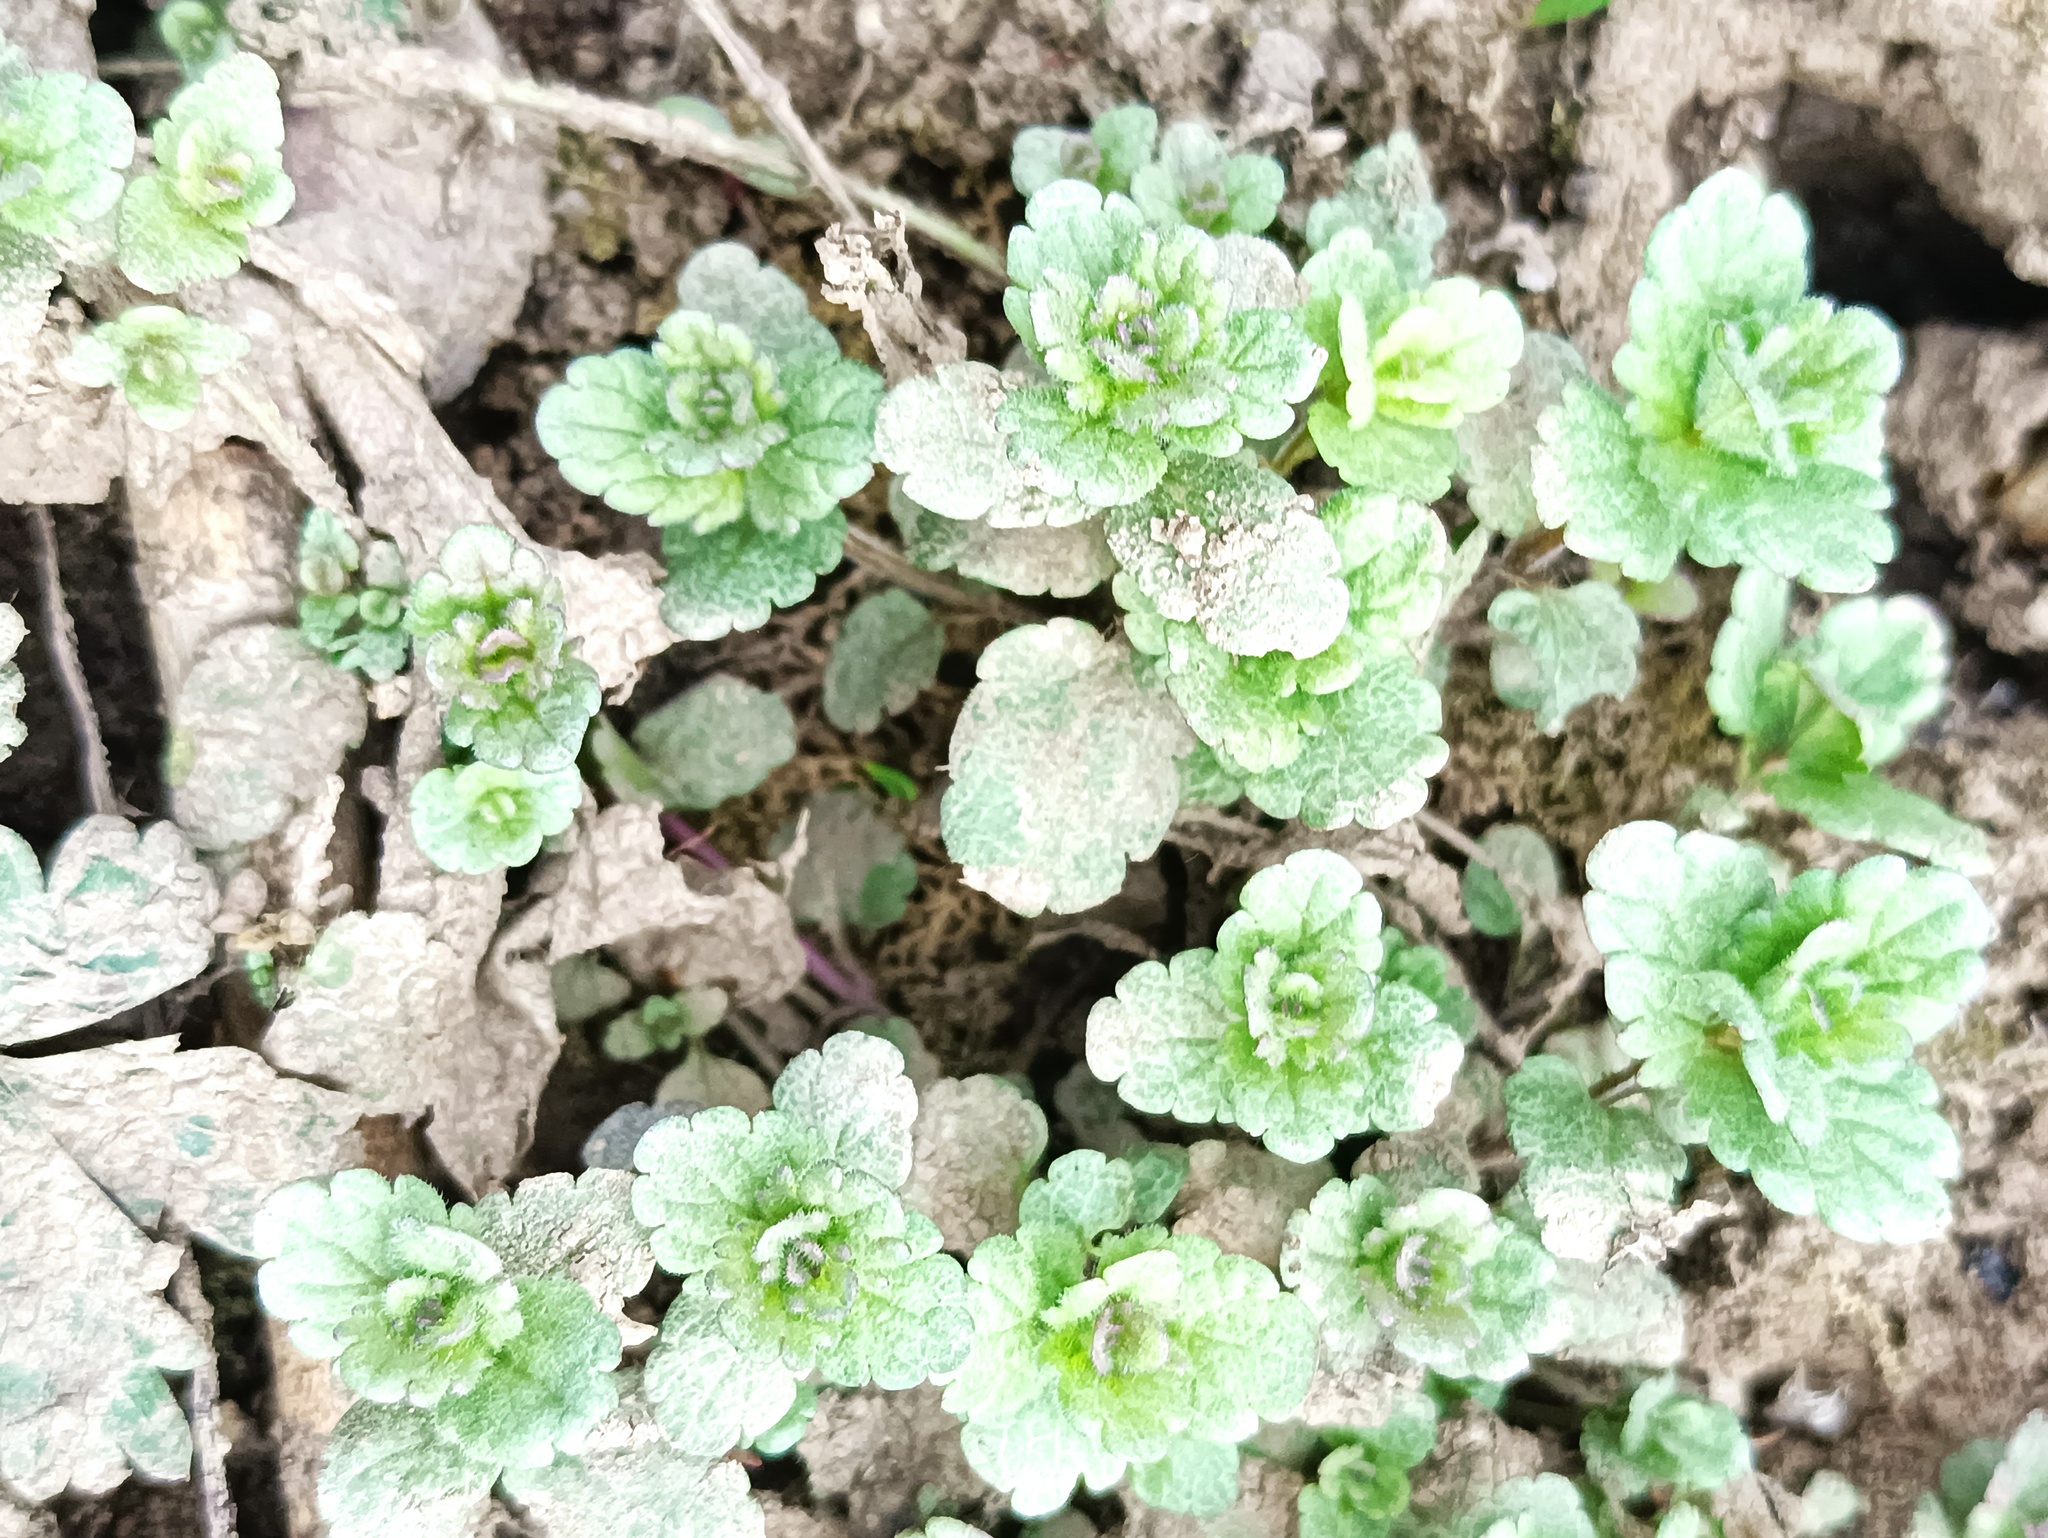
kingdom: Plantae
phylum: Tracheophyta
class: Magnoliopsida
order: Lamiales
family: Plantaginaceae
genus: Veronica
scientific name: Veronica chamaedrys
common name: Germander speedwell
